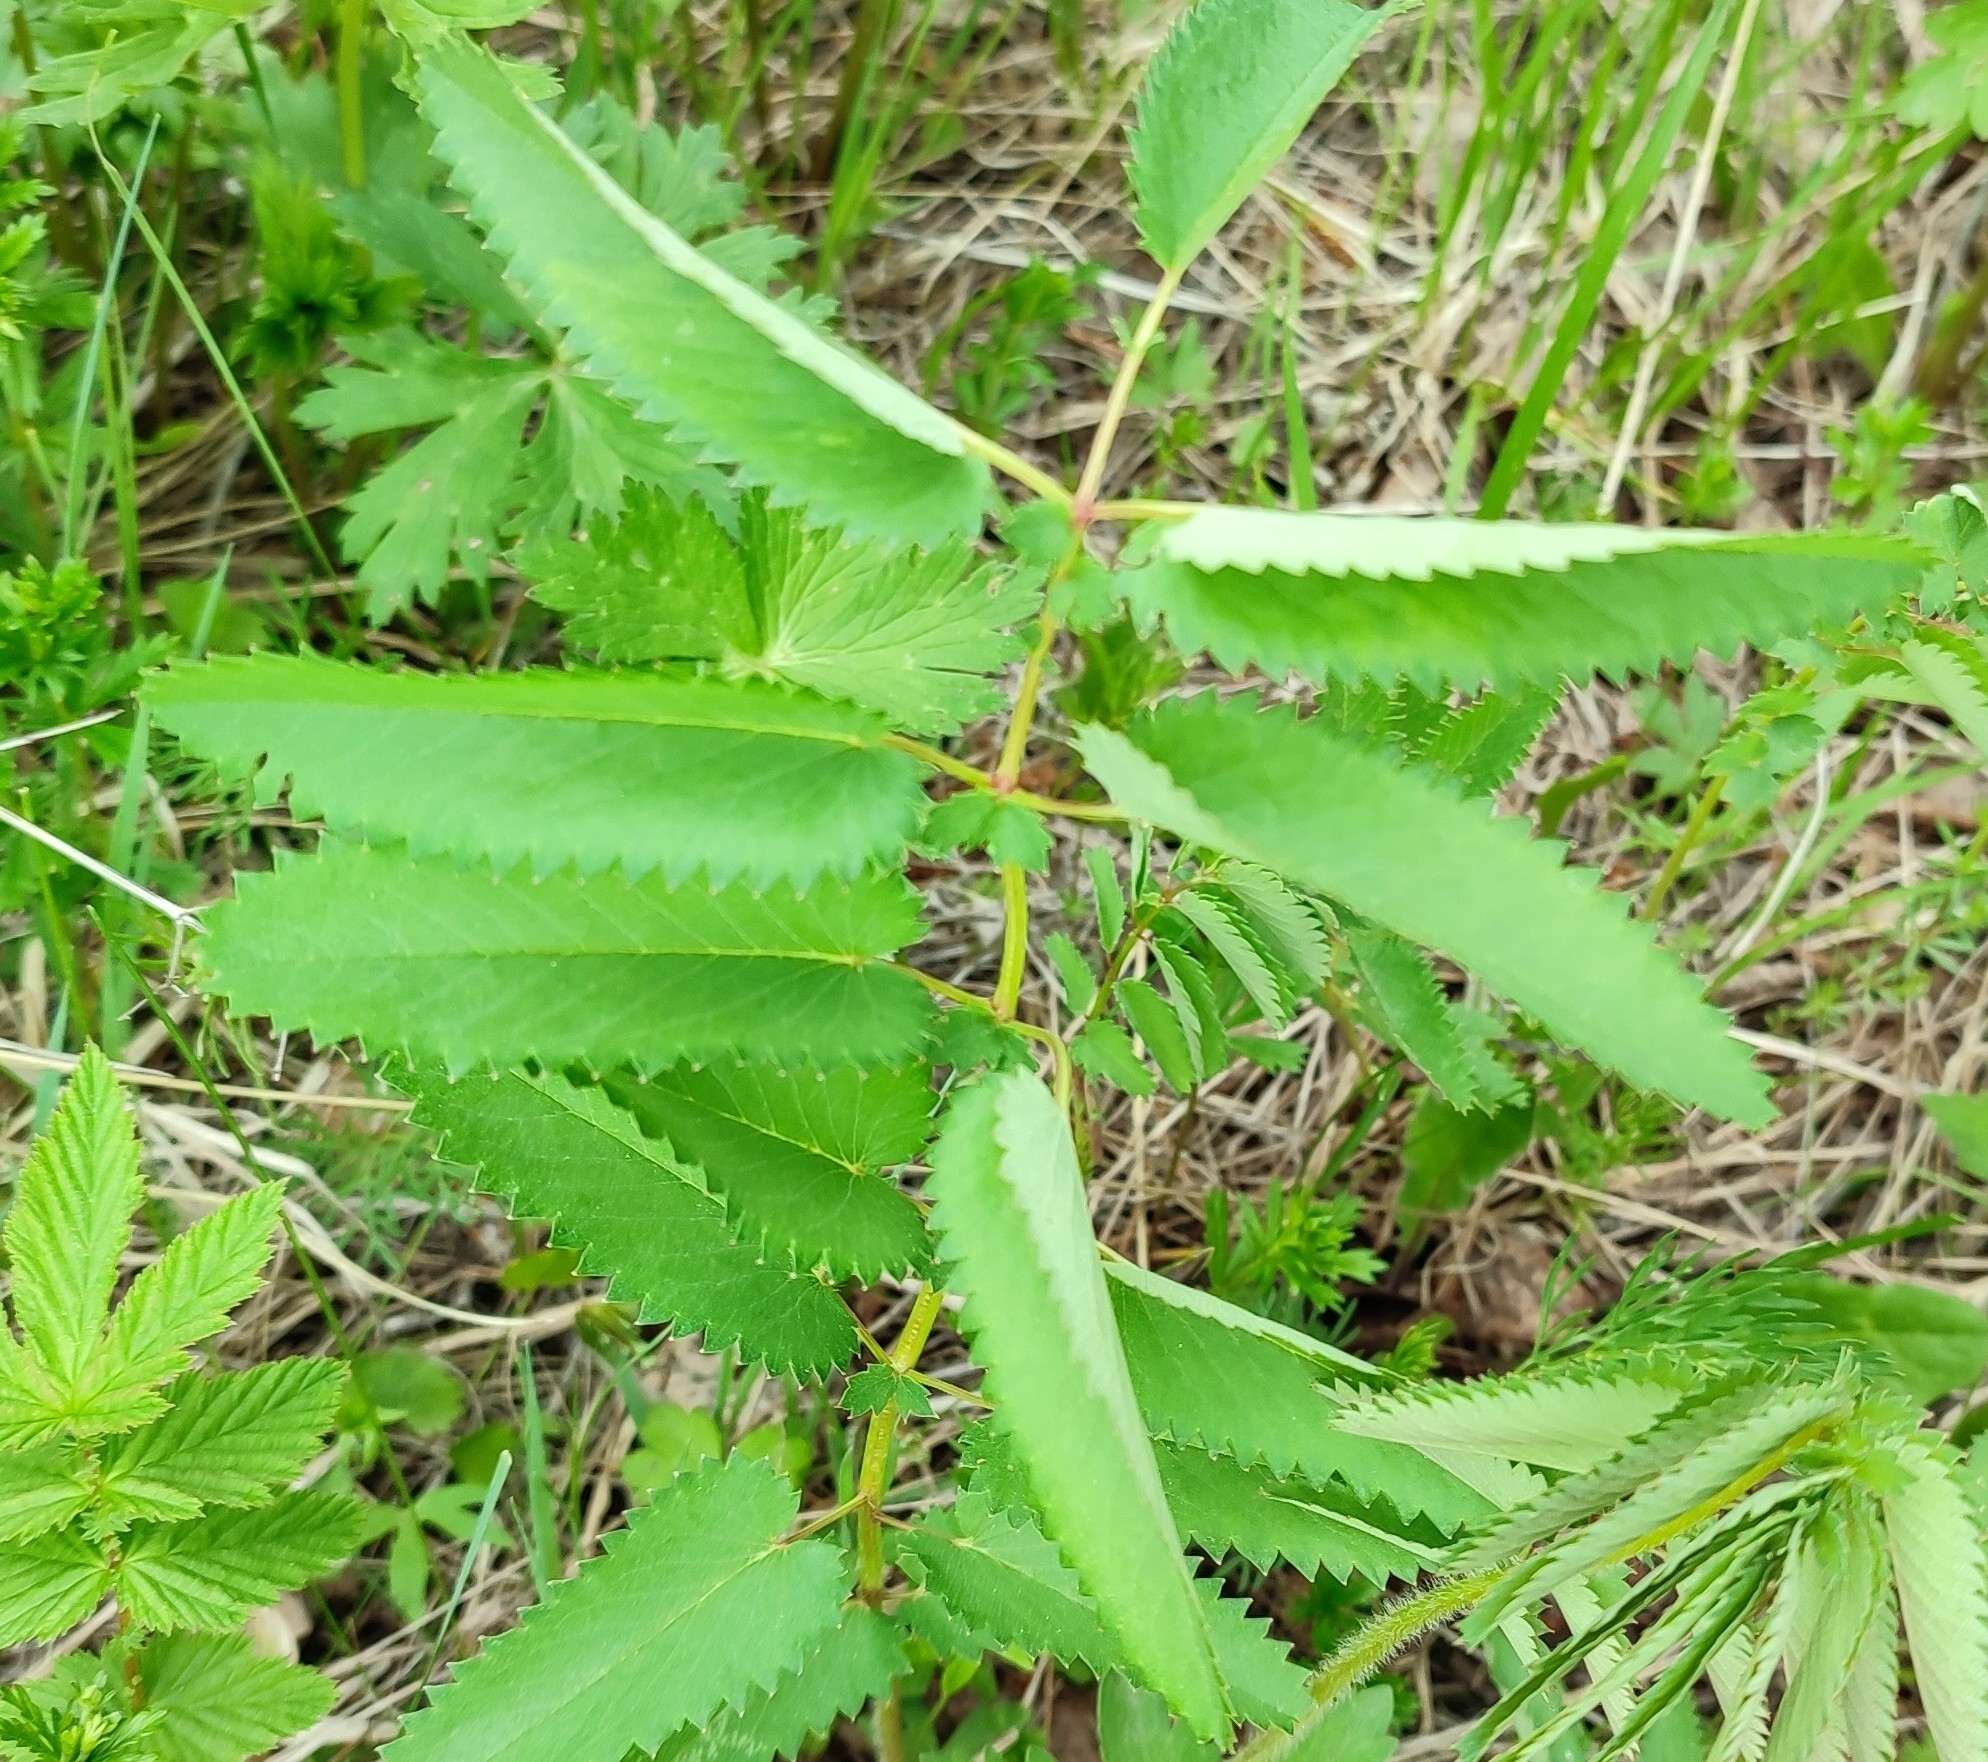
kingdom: Plantae
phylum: Tracheophyta
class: Magnoliopsida
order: Rosales
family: Rosaceae
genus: Sanguisorba
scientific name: Sanguisorba officinalis
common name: Great burnet
